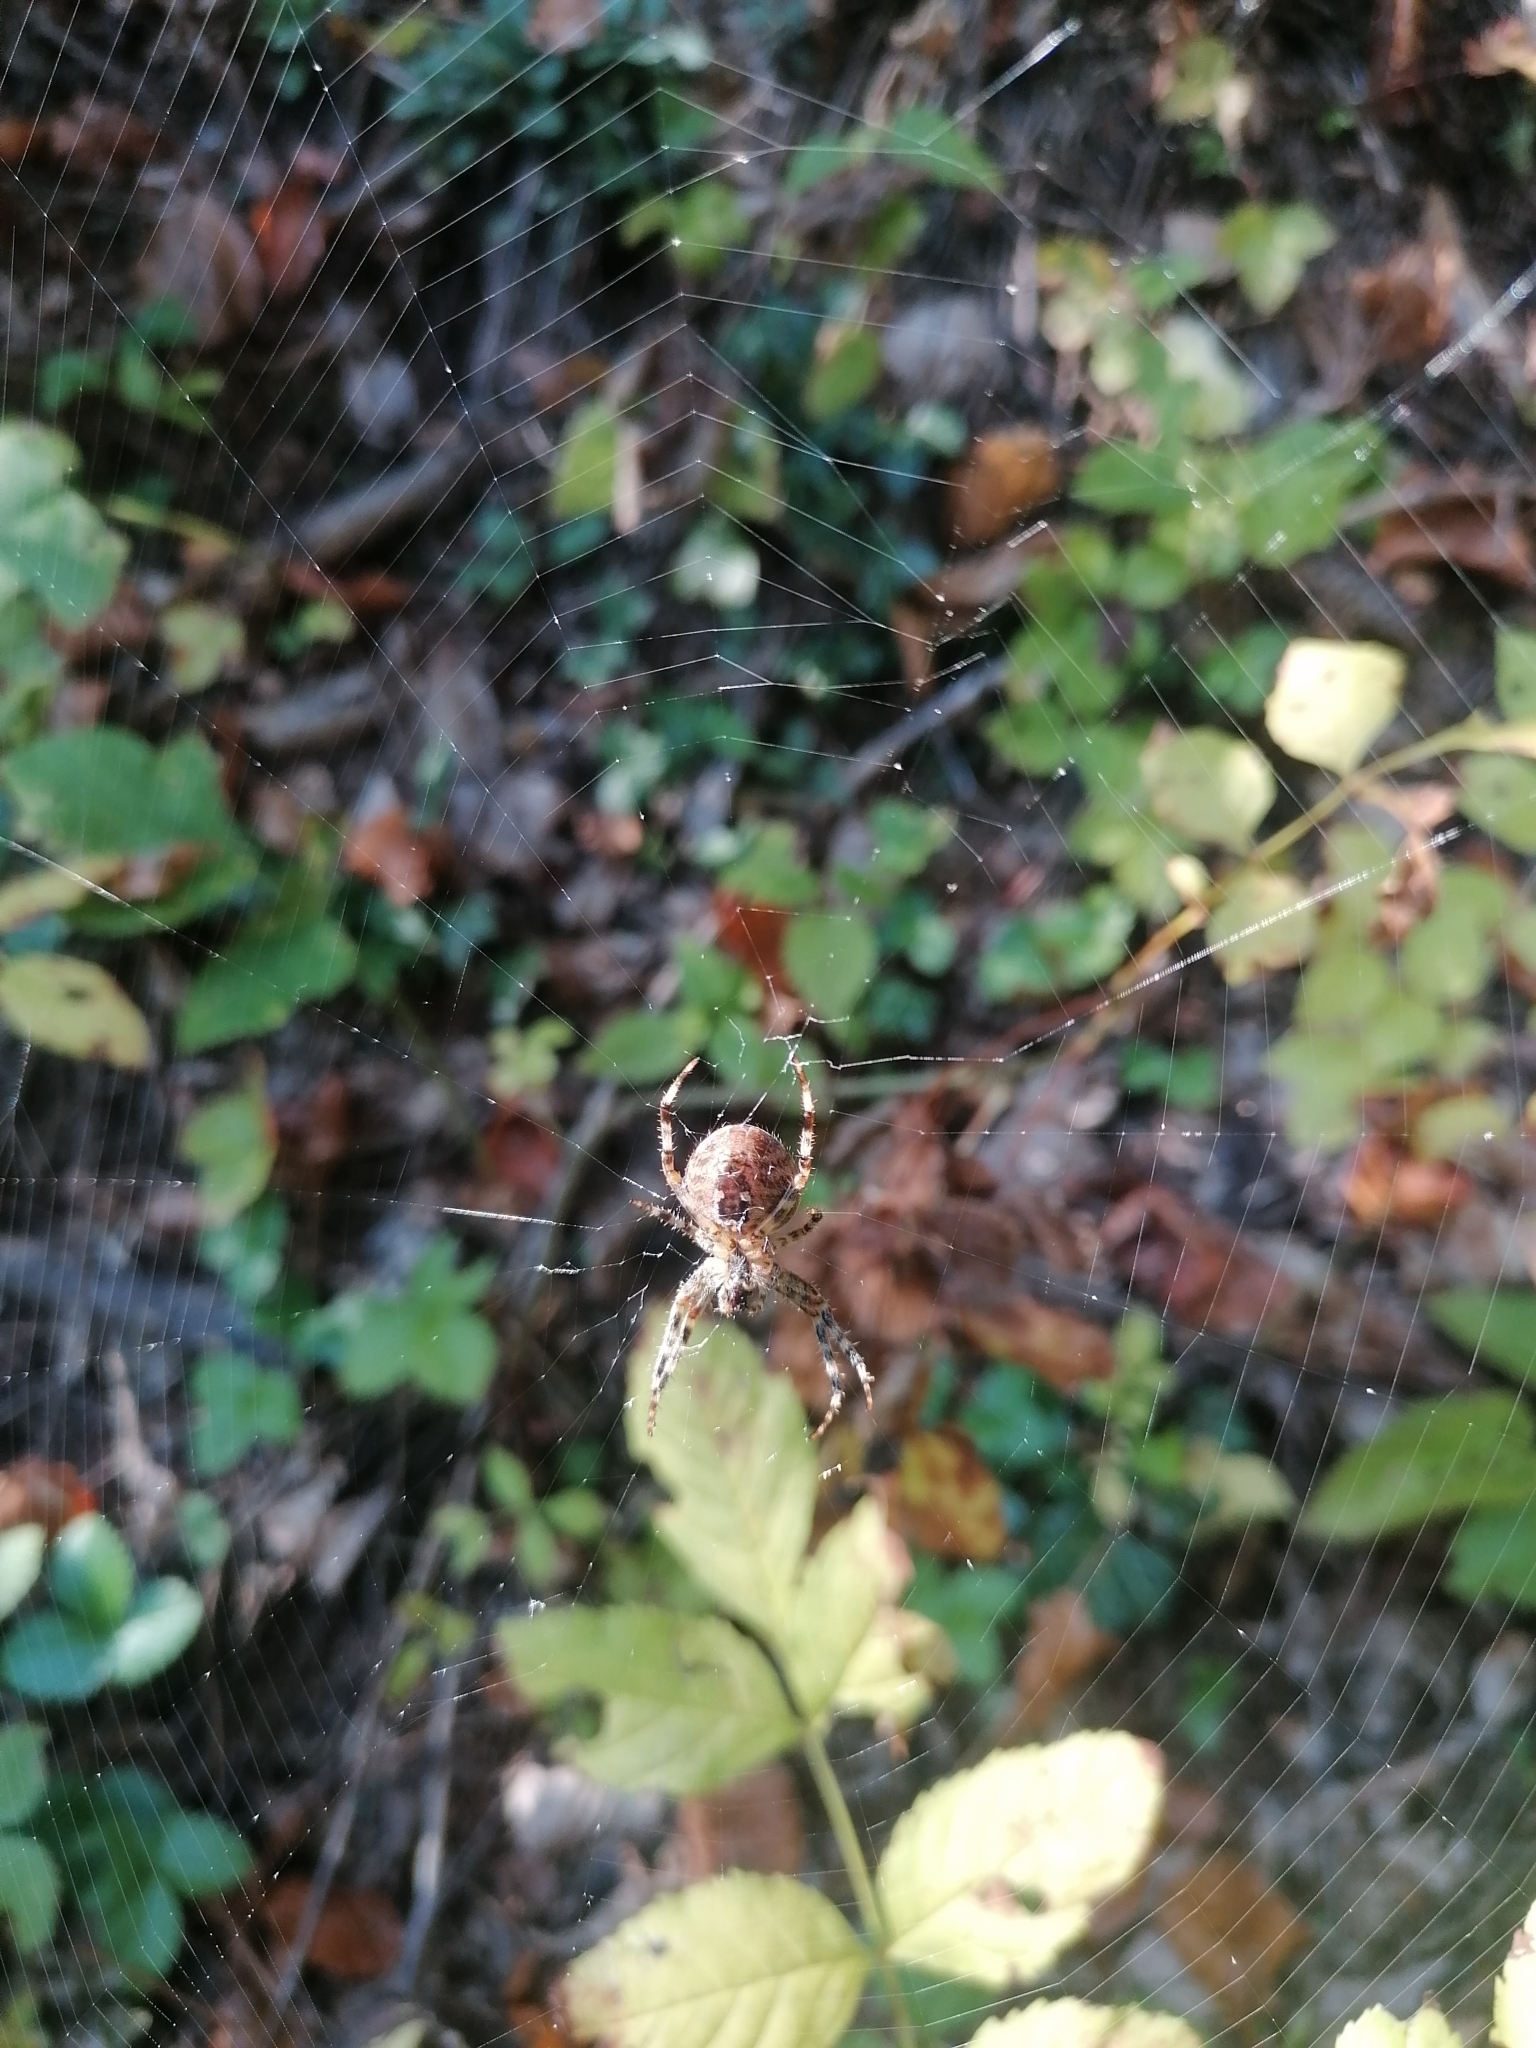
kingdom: Animalia
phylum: Arthropoda
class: Arachnida
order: Araneae
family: Araneidae
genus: Araneus
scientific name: Araneus diadematus
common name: Cross orbweaver
